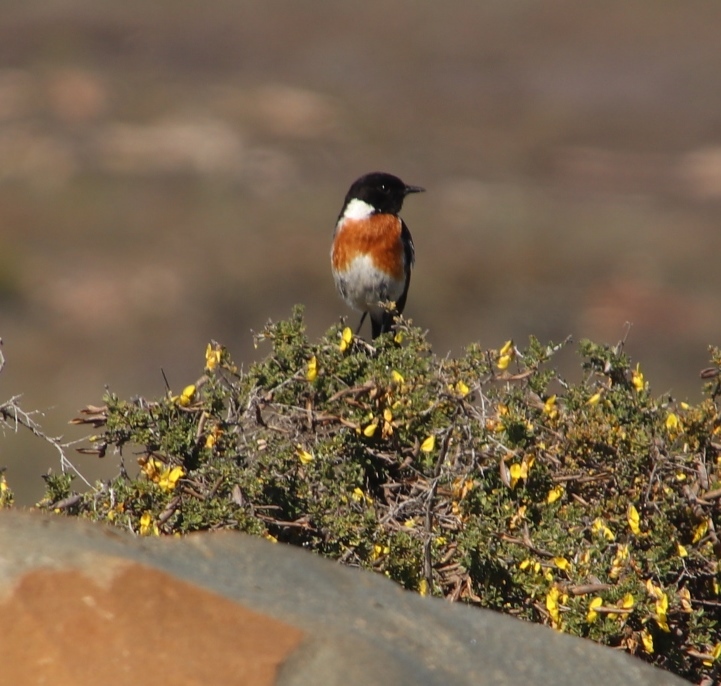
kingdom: Animalia
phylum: Chordata
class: Aves
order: Passeriformes
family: Muscicapidae
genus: Saxicola
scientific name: Saxicola torquatus
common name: African stonechat
